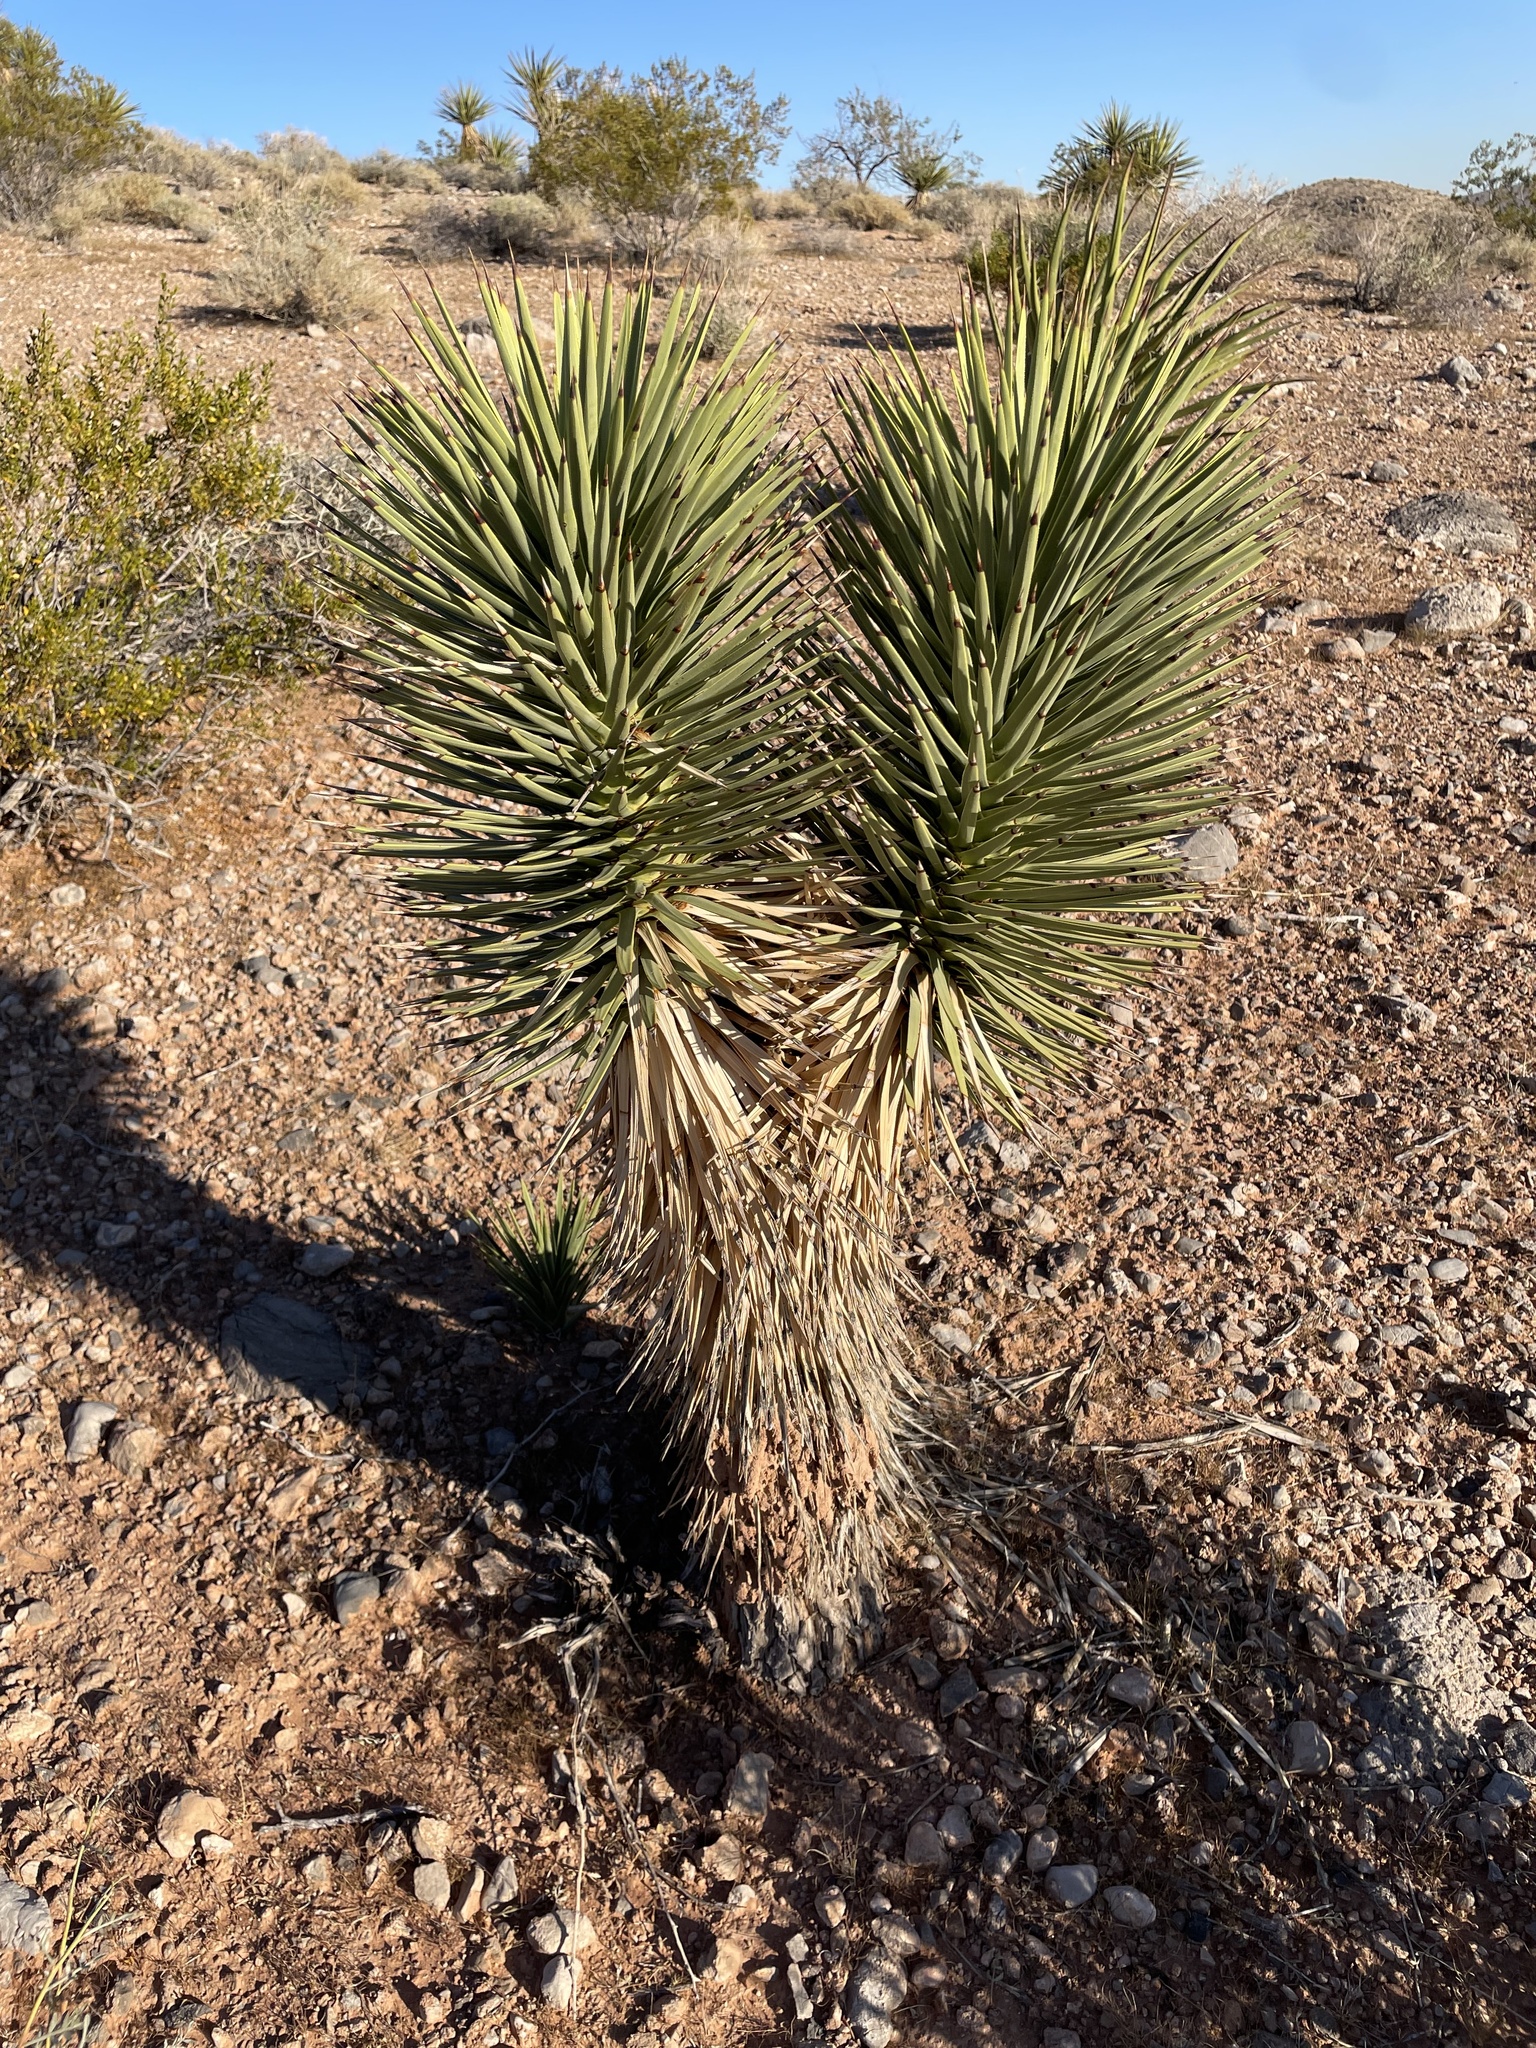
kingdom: Plantae
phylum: Tracheophyta
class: Liliopsida
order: Asparagales
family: Asparagaceae
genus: Yucca
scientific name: Yucca brevifolia
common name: Joshua tree
